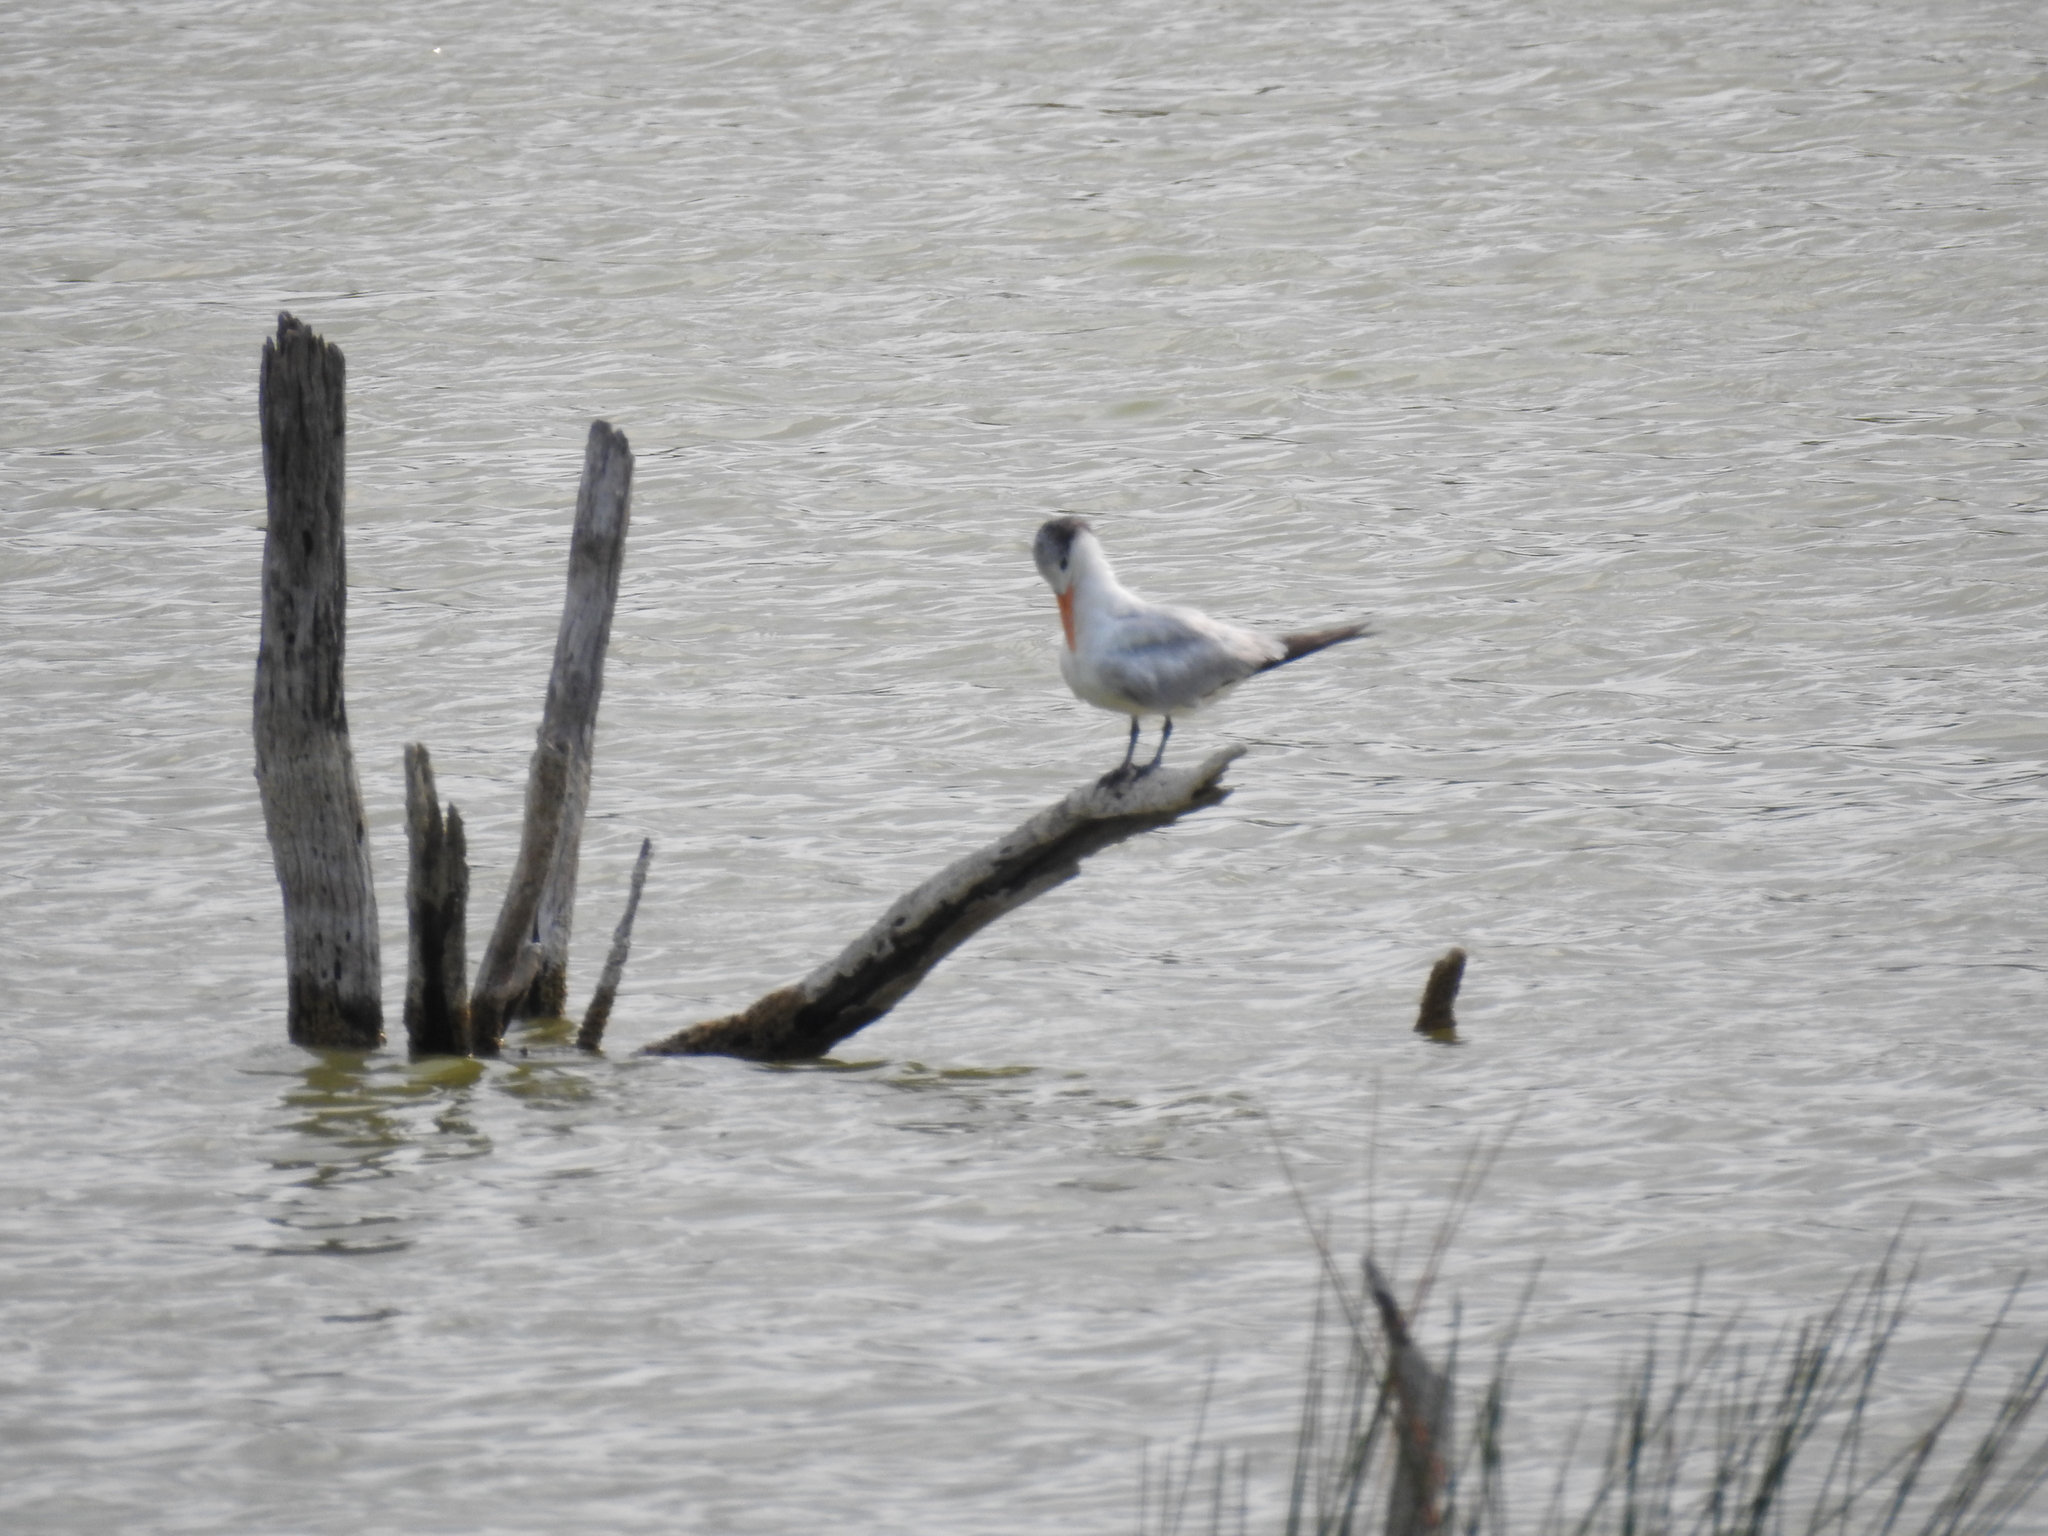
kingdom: Animalia
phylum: Chordata
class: Aves
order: Charadriiformes
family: Laridae
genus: Thalasseus
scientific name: Thalasseus maximus
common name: Royal tern
